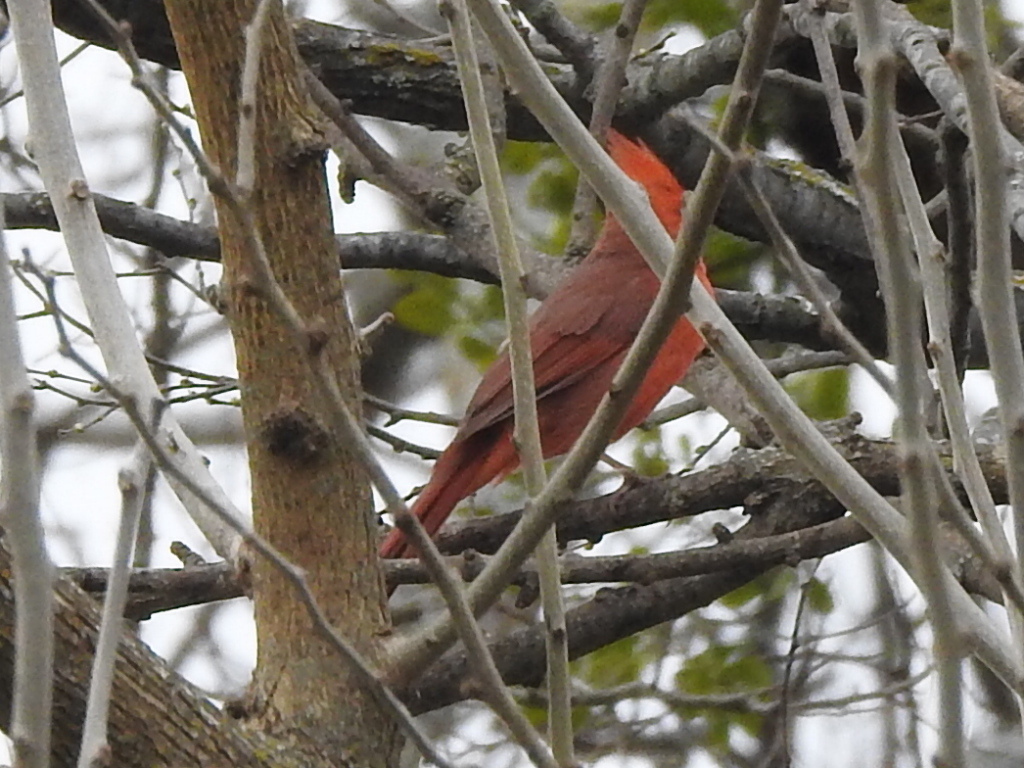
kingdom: Animalia
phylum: Chordata
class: Aves
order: Passeriformes
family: Cardinalidae
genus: Cardinalis
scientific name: Cardinalis cardinalis
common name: Northern cardinal
